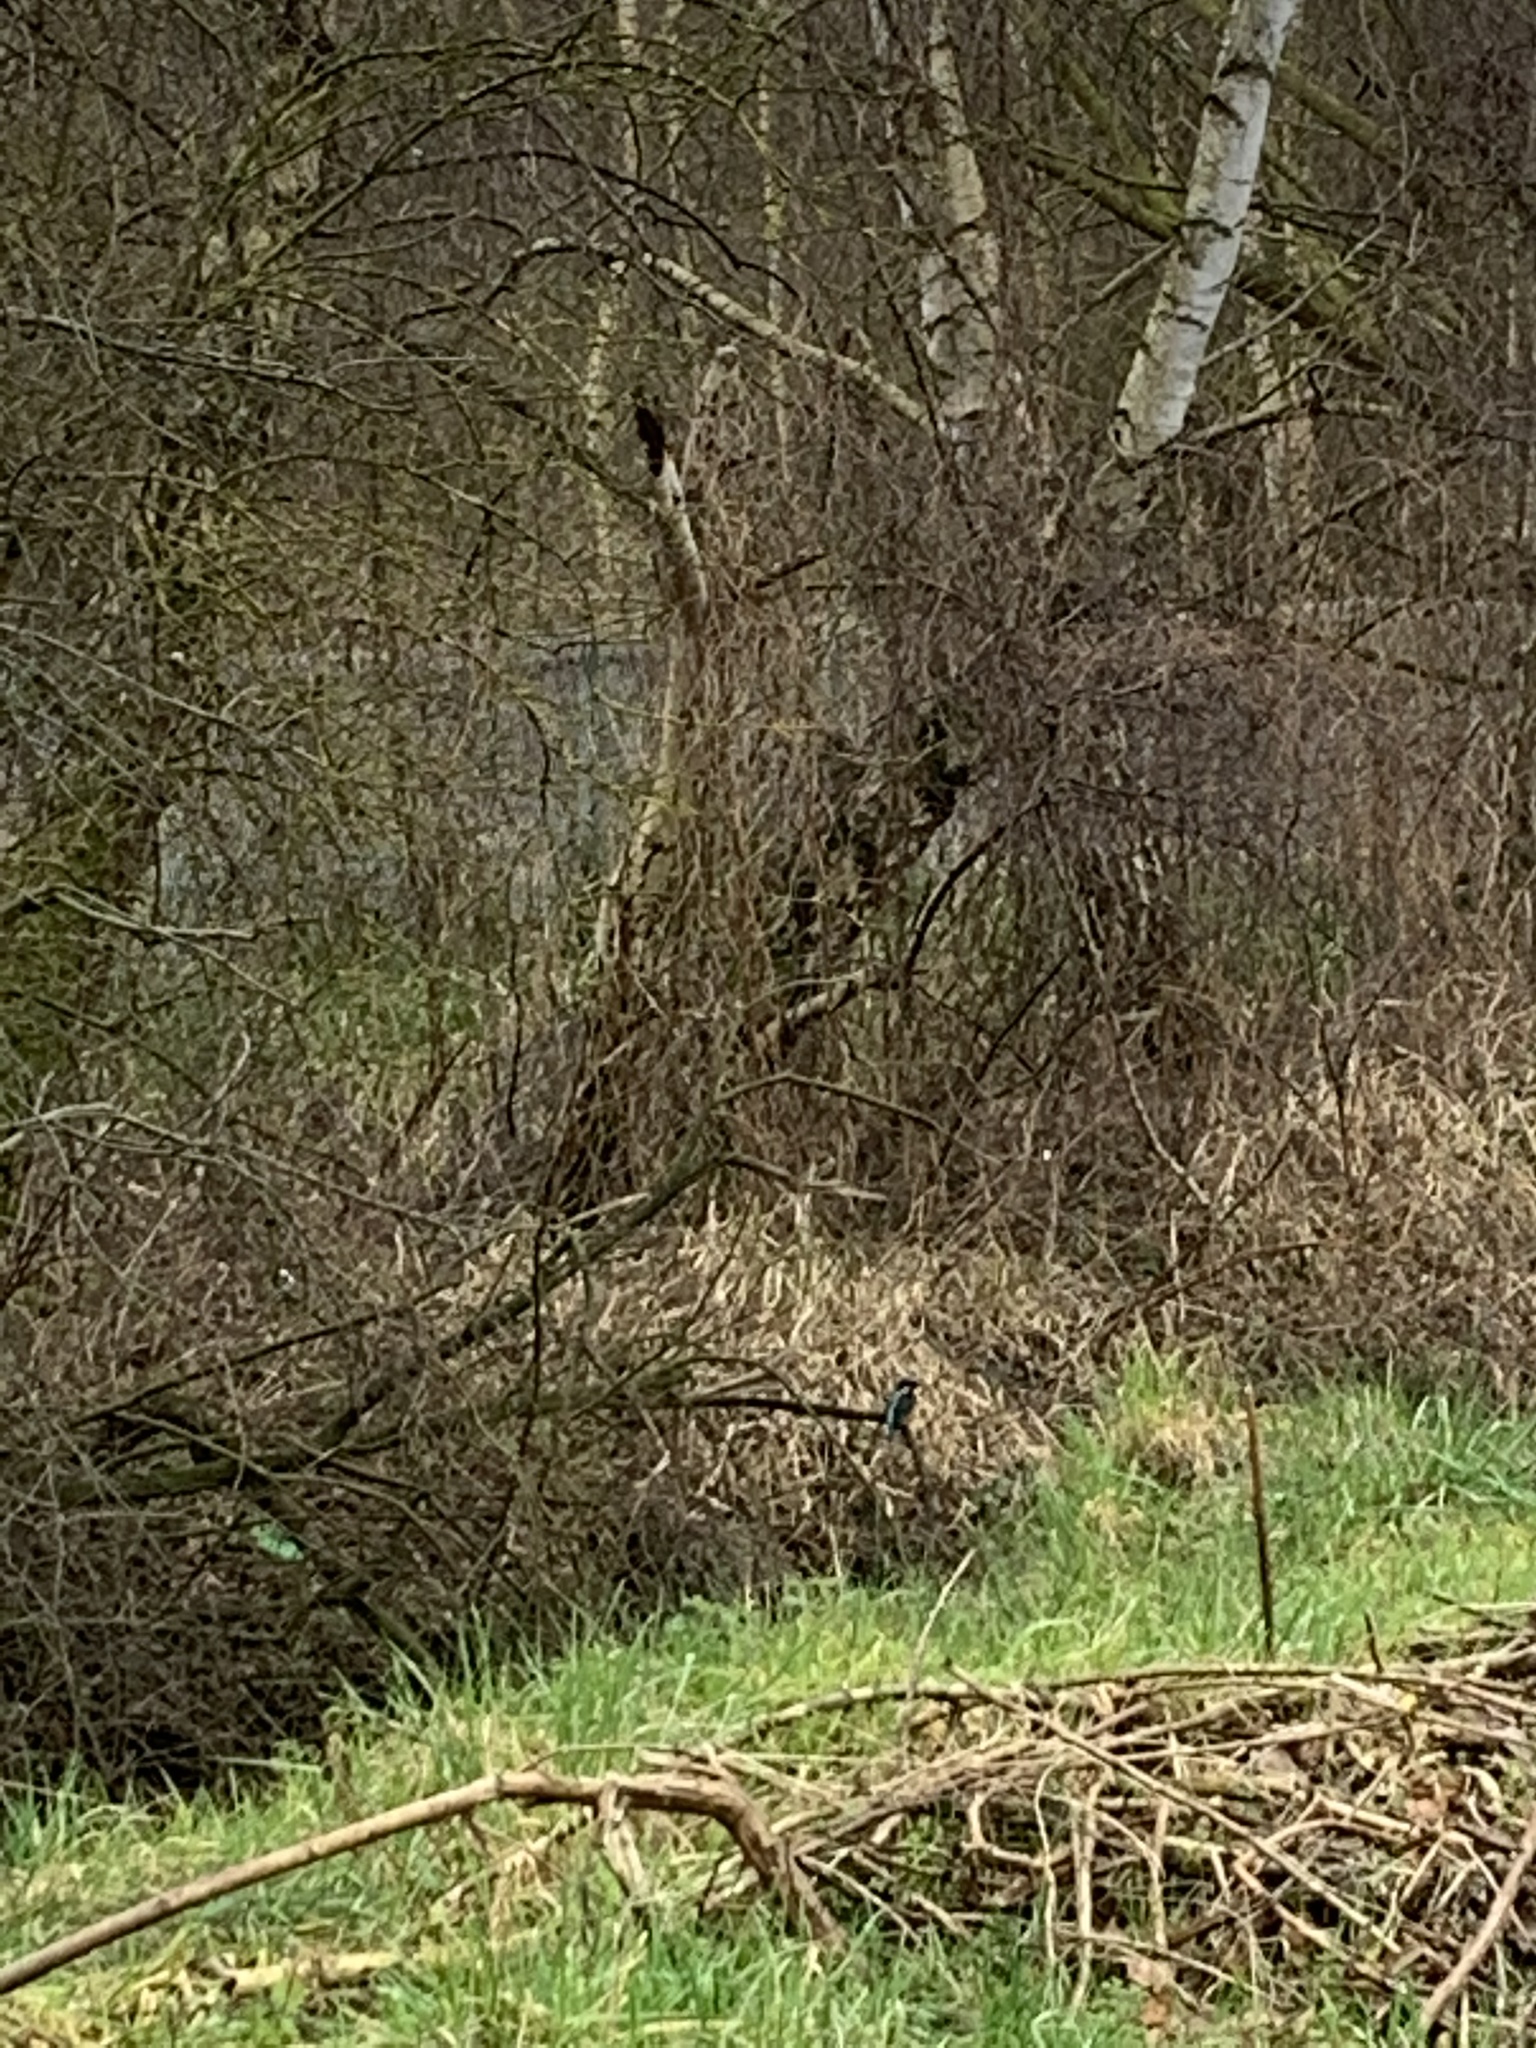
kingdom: Animalia
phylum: Chordata
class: Aves
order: Coraciiformes
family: Alcedinidae
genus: Alcedo
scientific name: Alcedo atthis
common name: Common kingfisher
